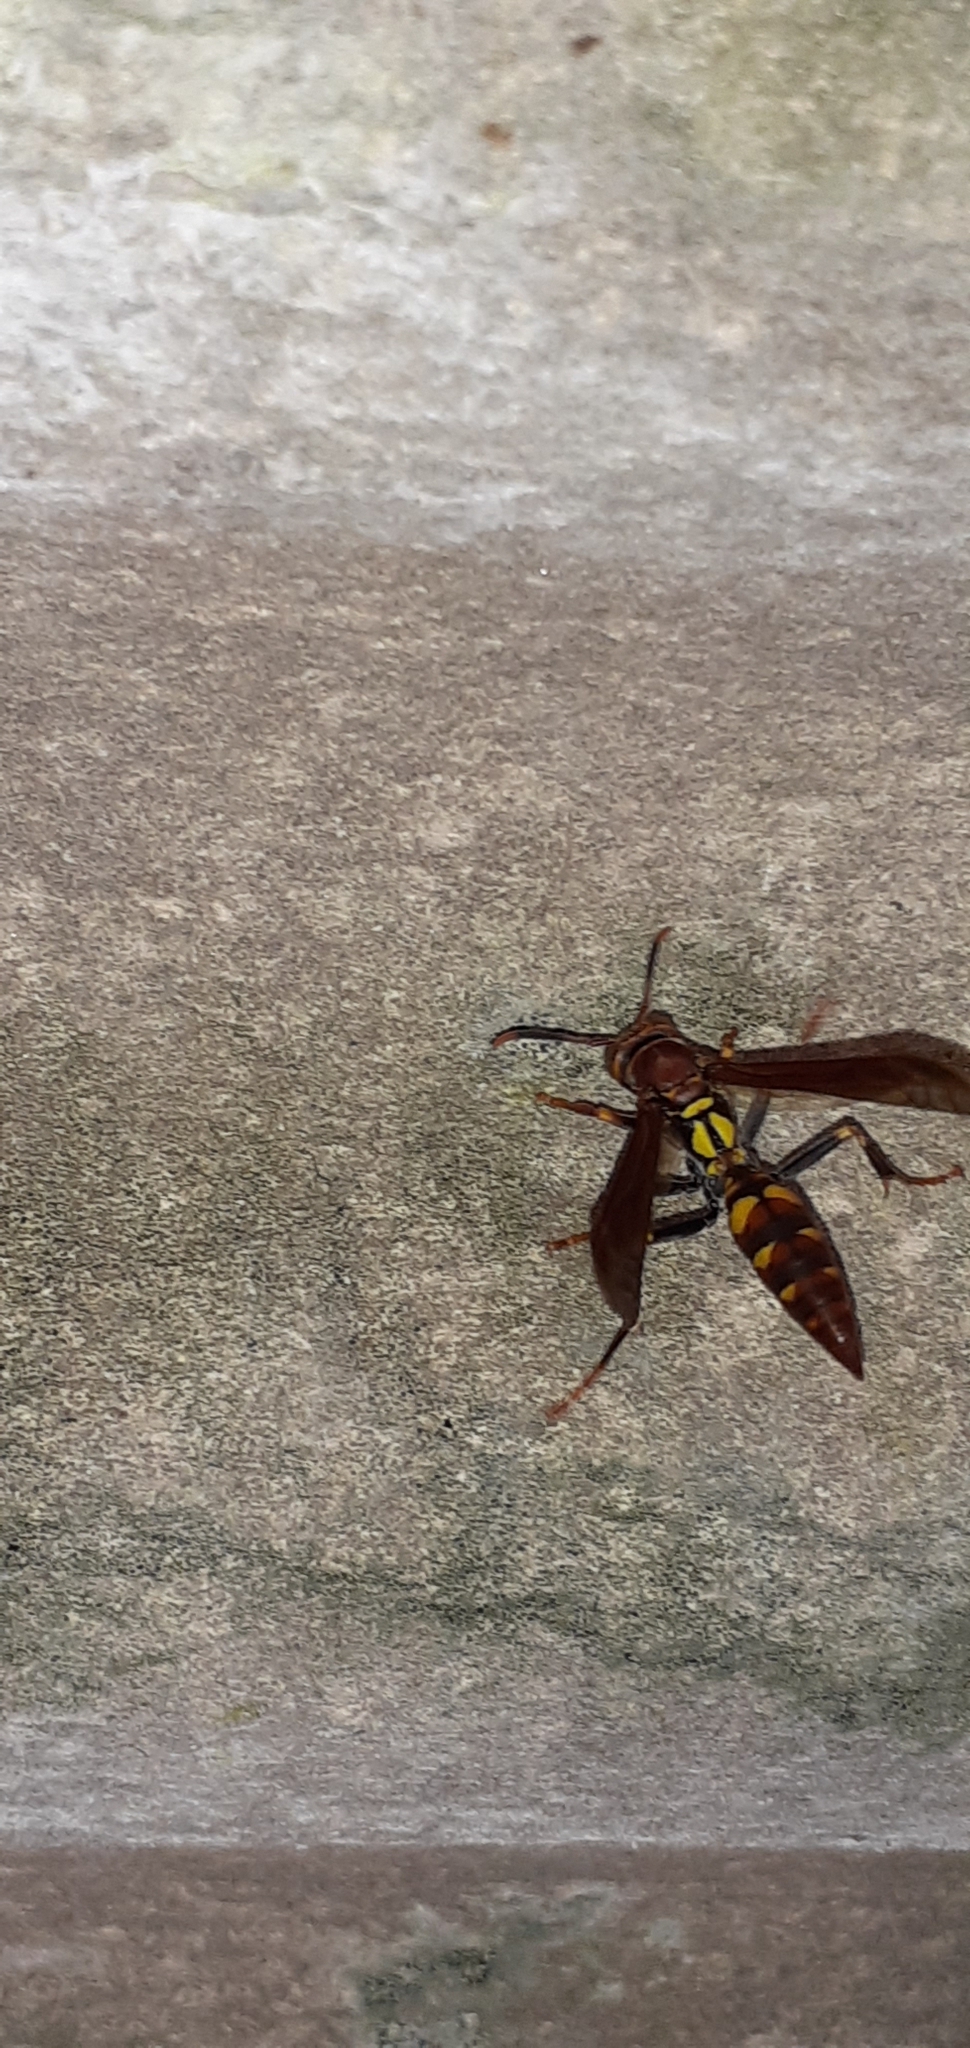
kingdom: Animalia
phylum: Arthropoda
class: Insecta
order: Hymenoptera
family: Eumenidae
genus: Polistes
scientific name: Polistes versicolor
